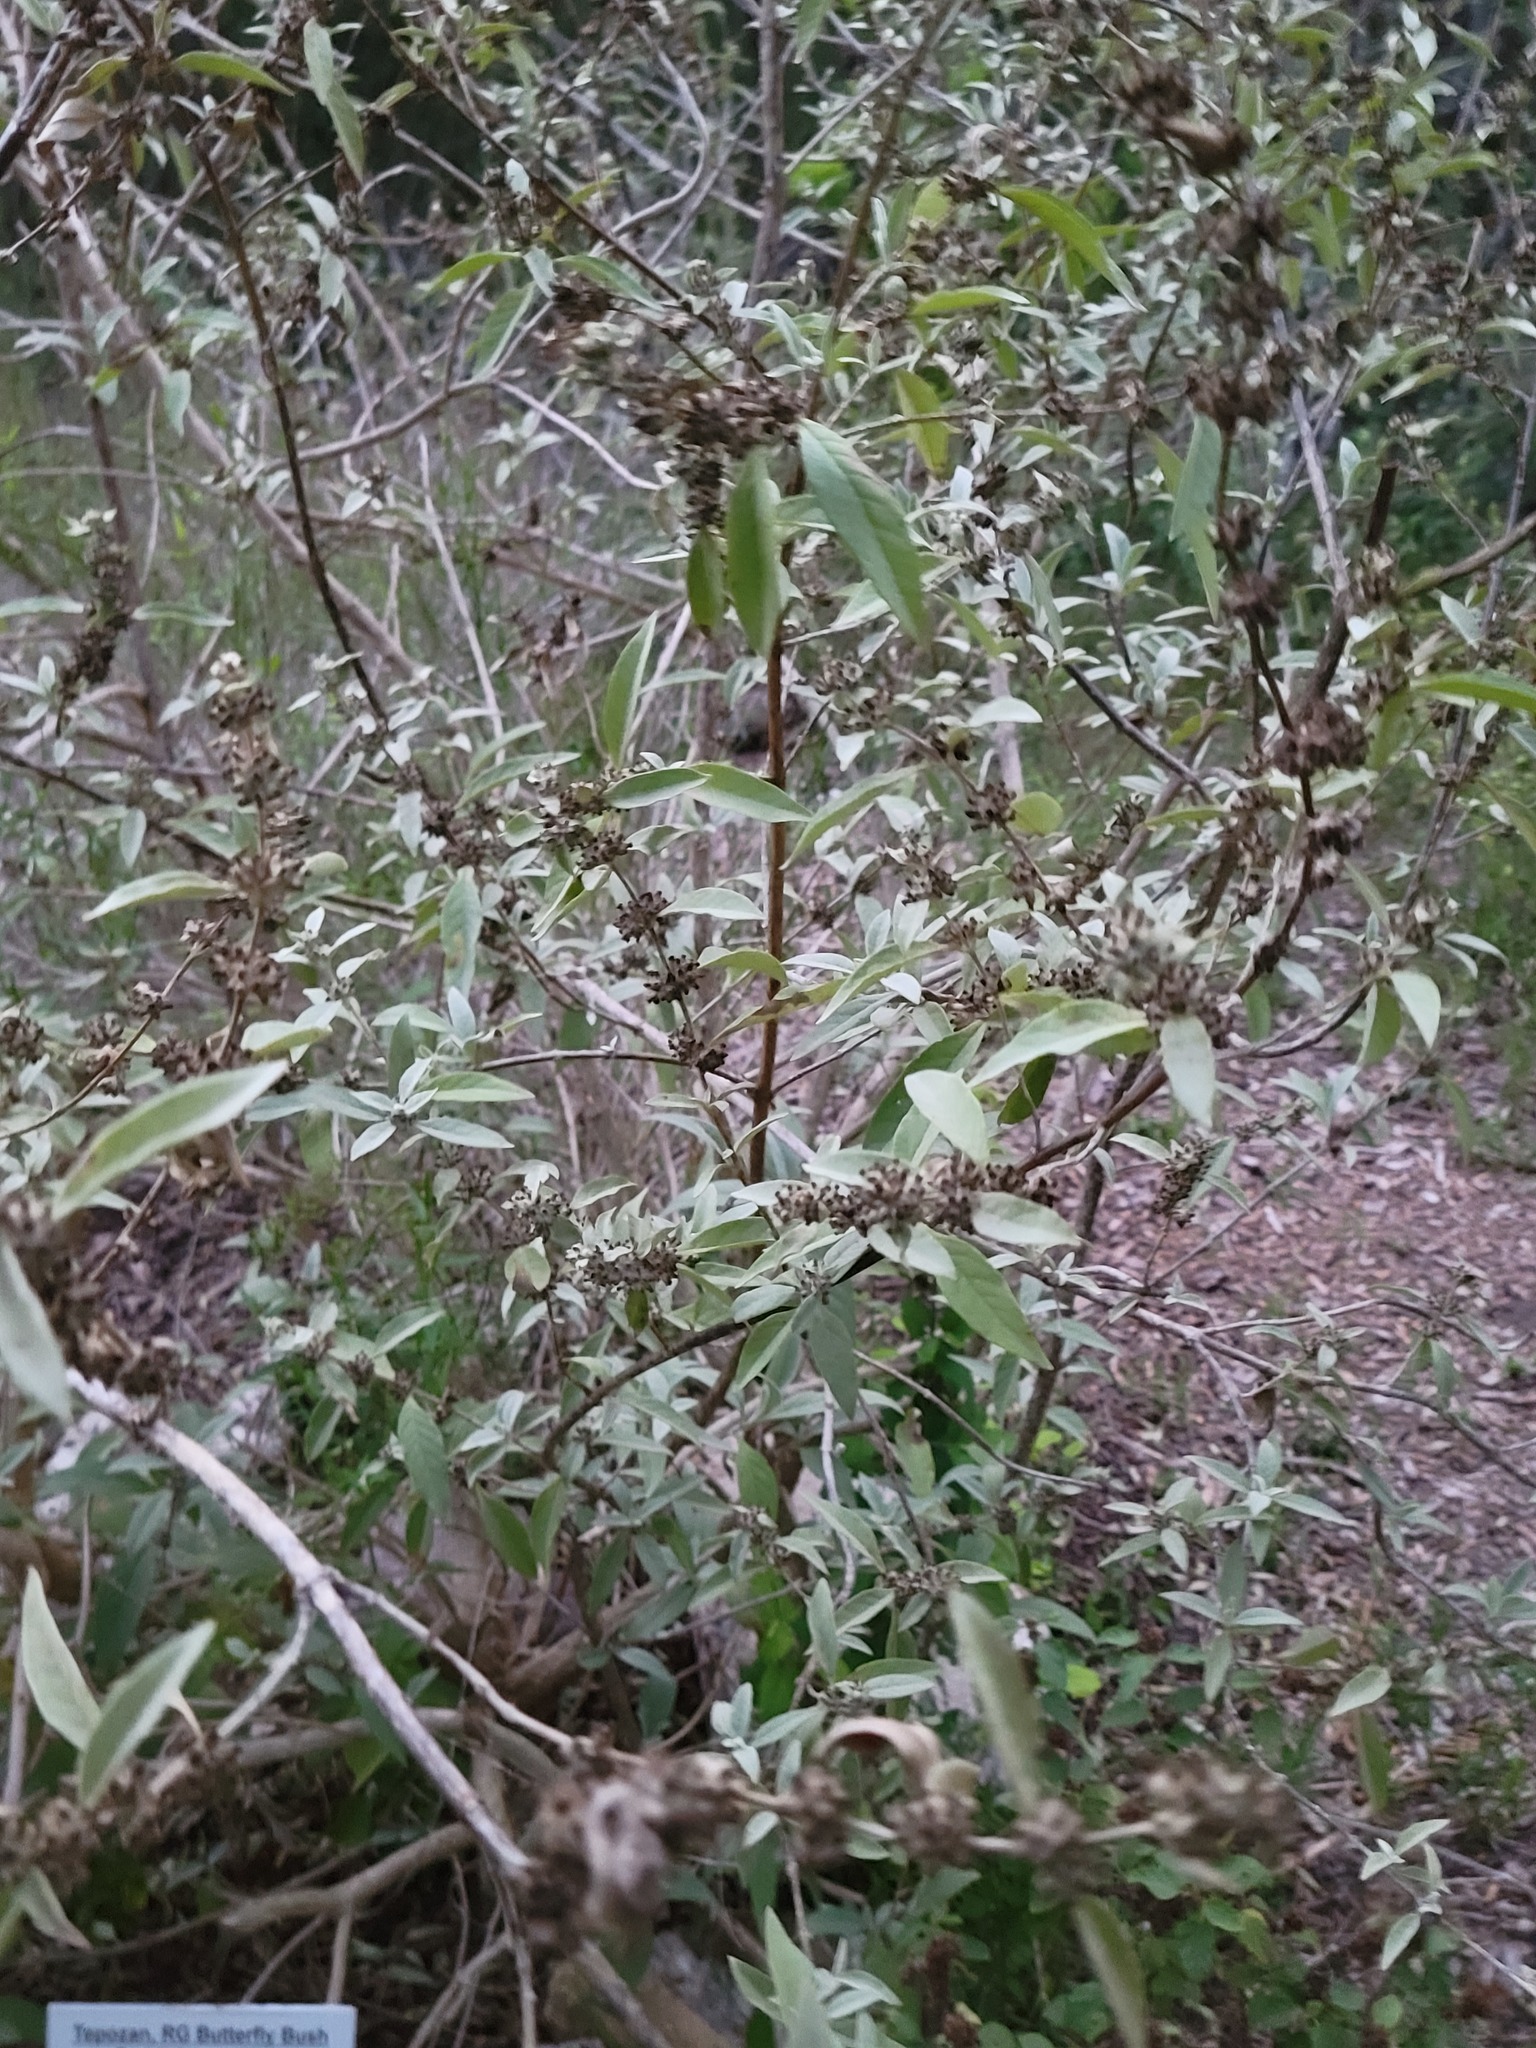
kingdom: Plantae
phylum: Tracheophyta
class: Magnoliopsida
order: Lamiales
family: Scrophulariaceae
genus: Buddleja
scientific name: Buddleja sessiliflora
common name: Rio grande butterfly-bush
